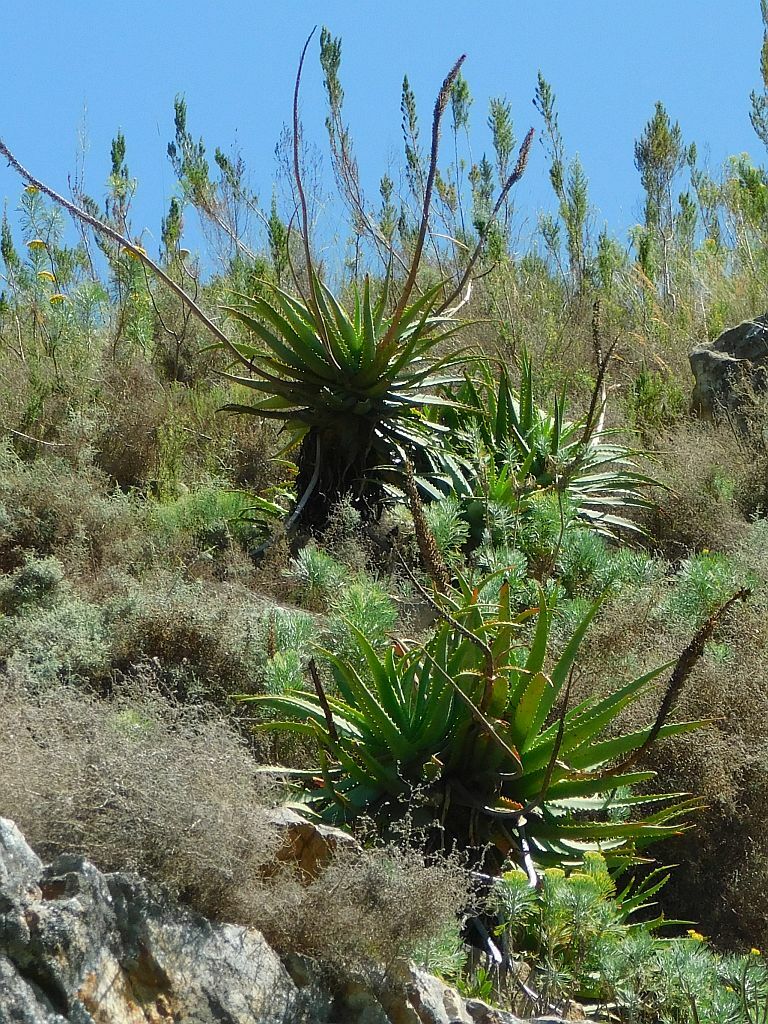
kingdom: Plantae
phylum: Tracheophyta
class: Liliopsida
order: Asparagales
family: Asphodelaceae
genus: Aloe
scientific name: Aloe arborescens
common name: Candelabra aloe
